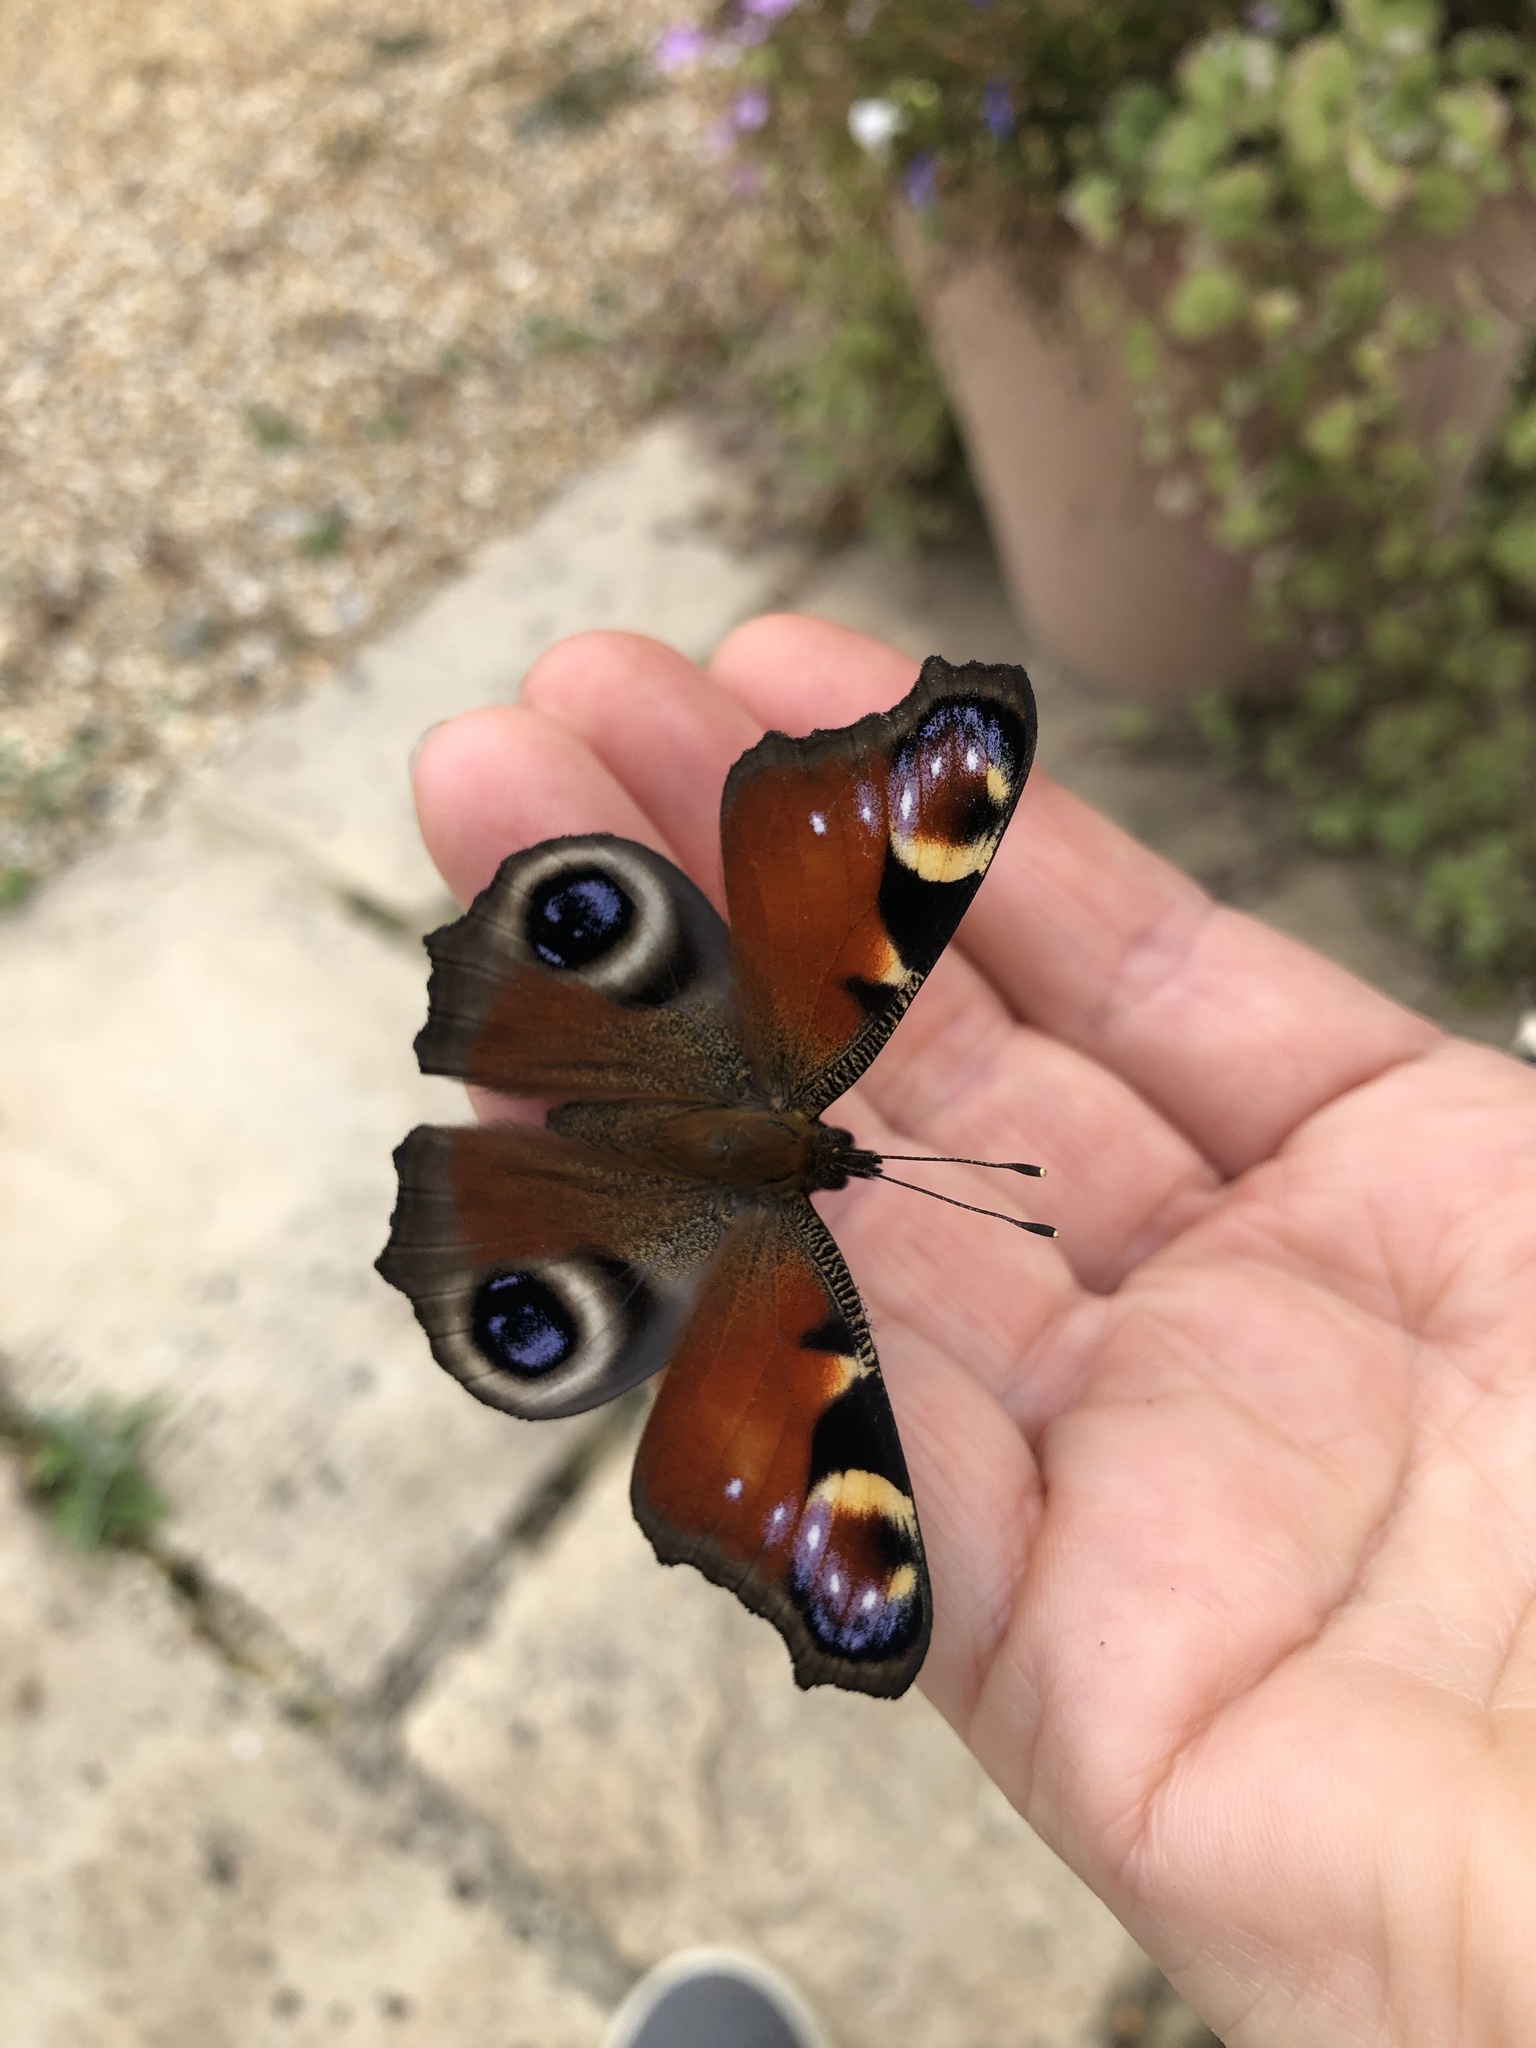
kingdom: Animalia
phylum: Arthropoda
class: Insecta
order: Lepidoptera
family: Nymphalidae
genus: Aglais
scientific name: Aglais io
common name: Peacock
